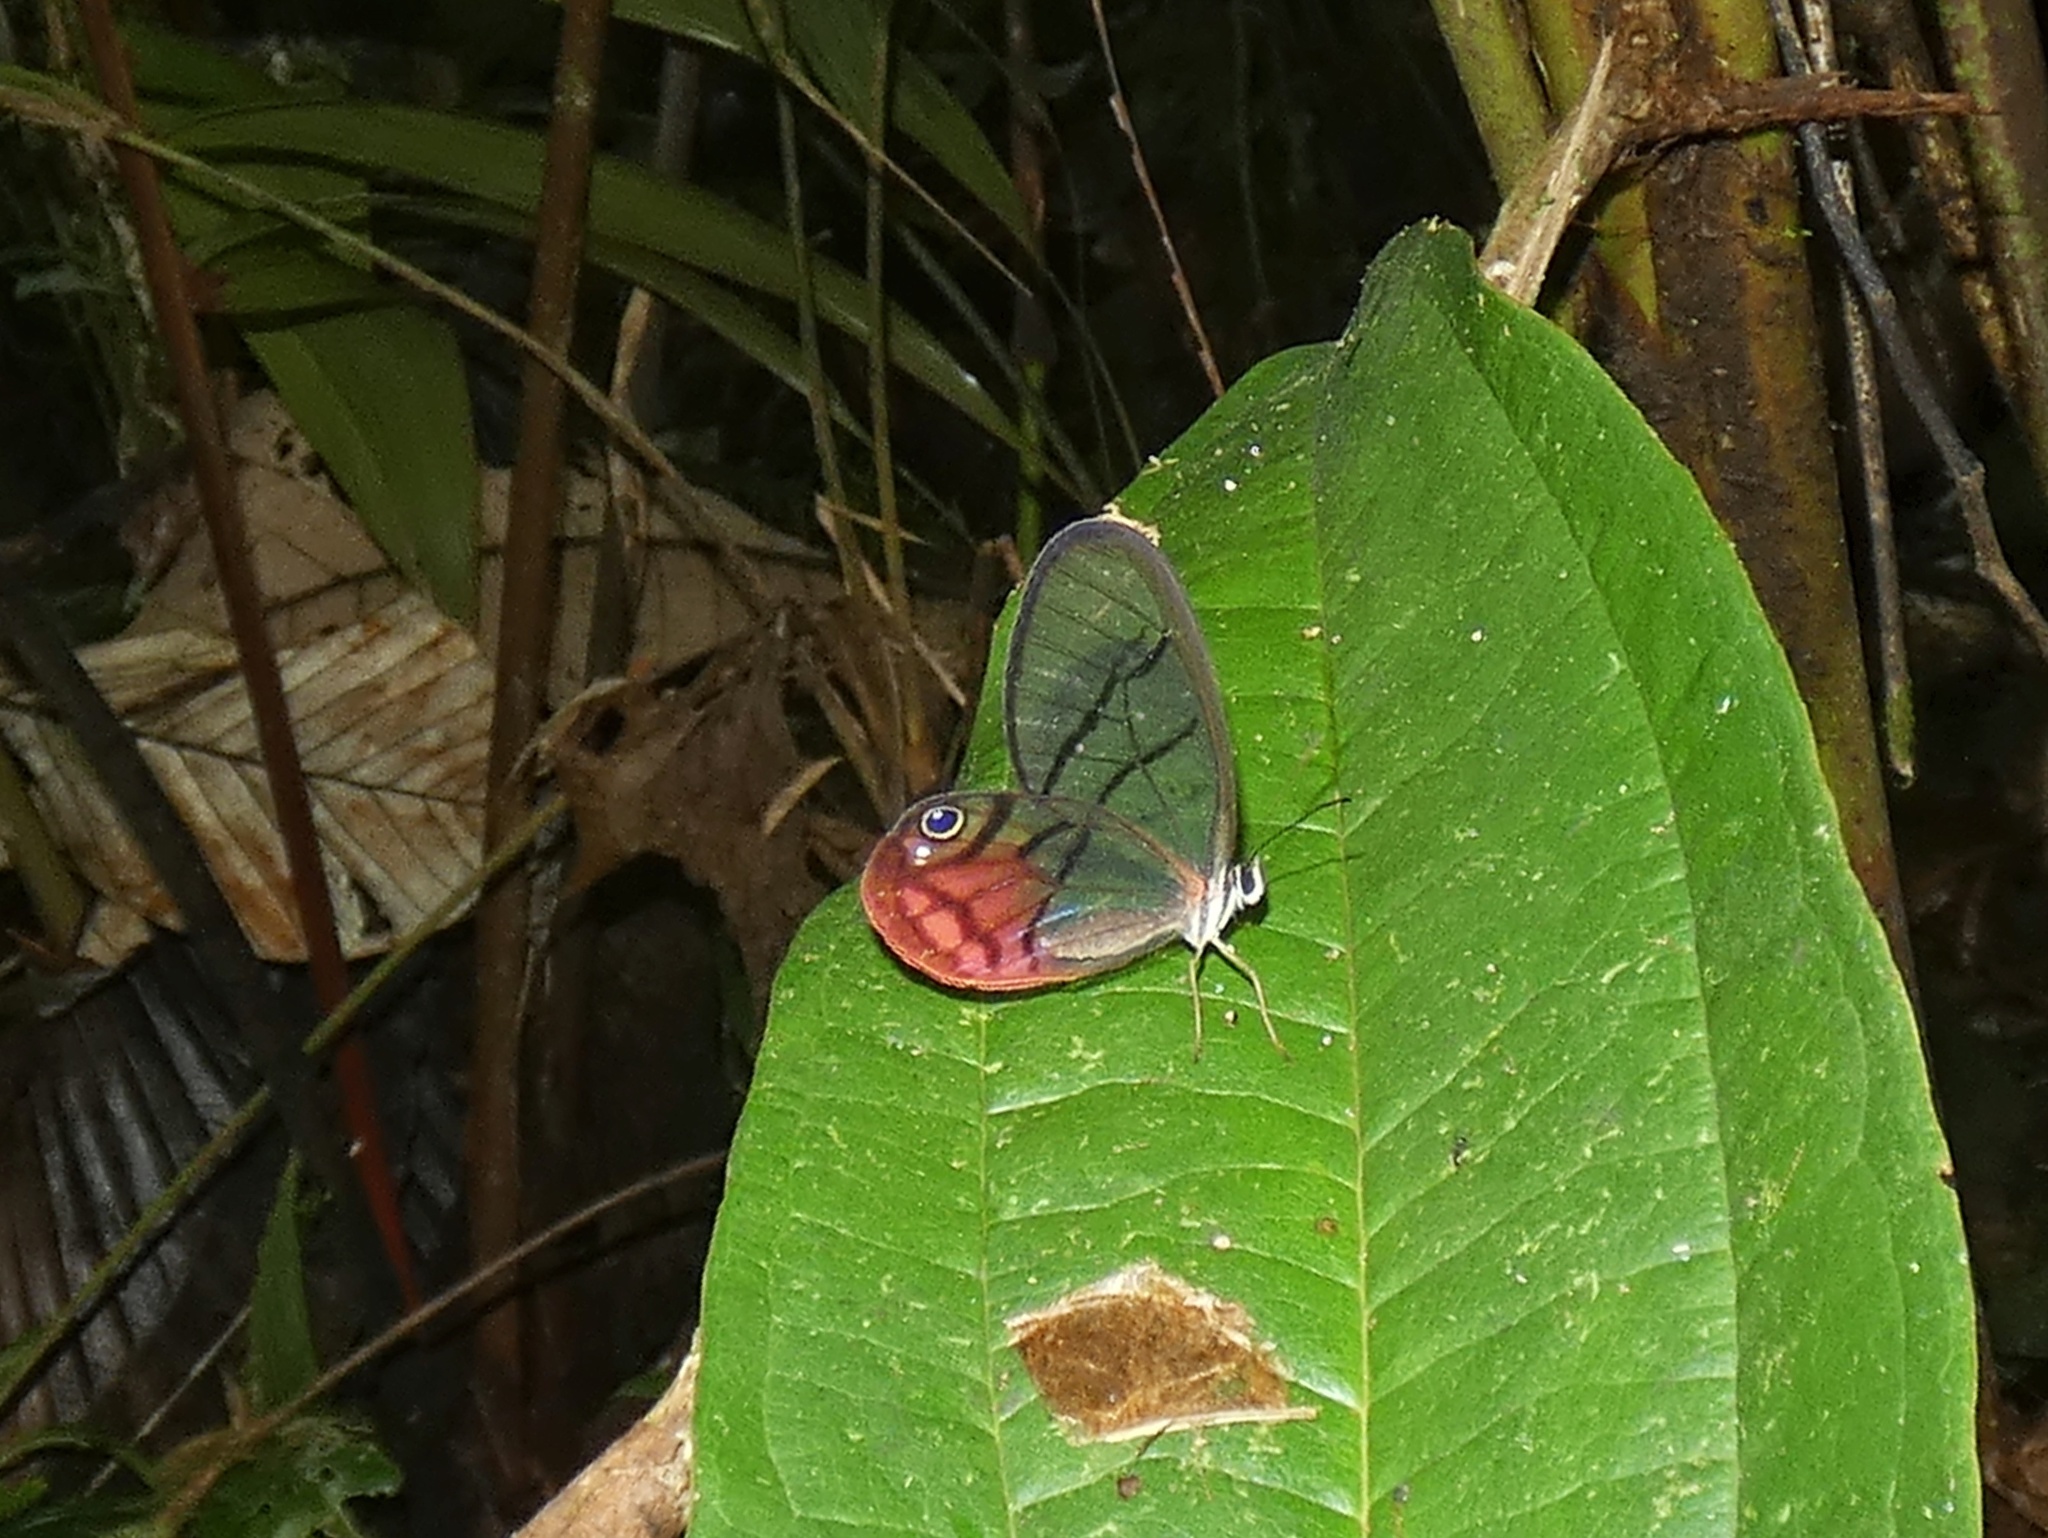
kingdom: Animalia
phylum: Arthropoda
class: Insecta
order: Lepidoptera
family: Nymphalidae
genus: Cithaerias
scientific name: Cithaerias pireta
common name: Rusted clearwing-satyr
